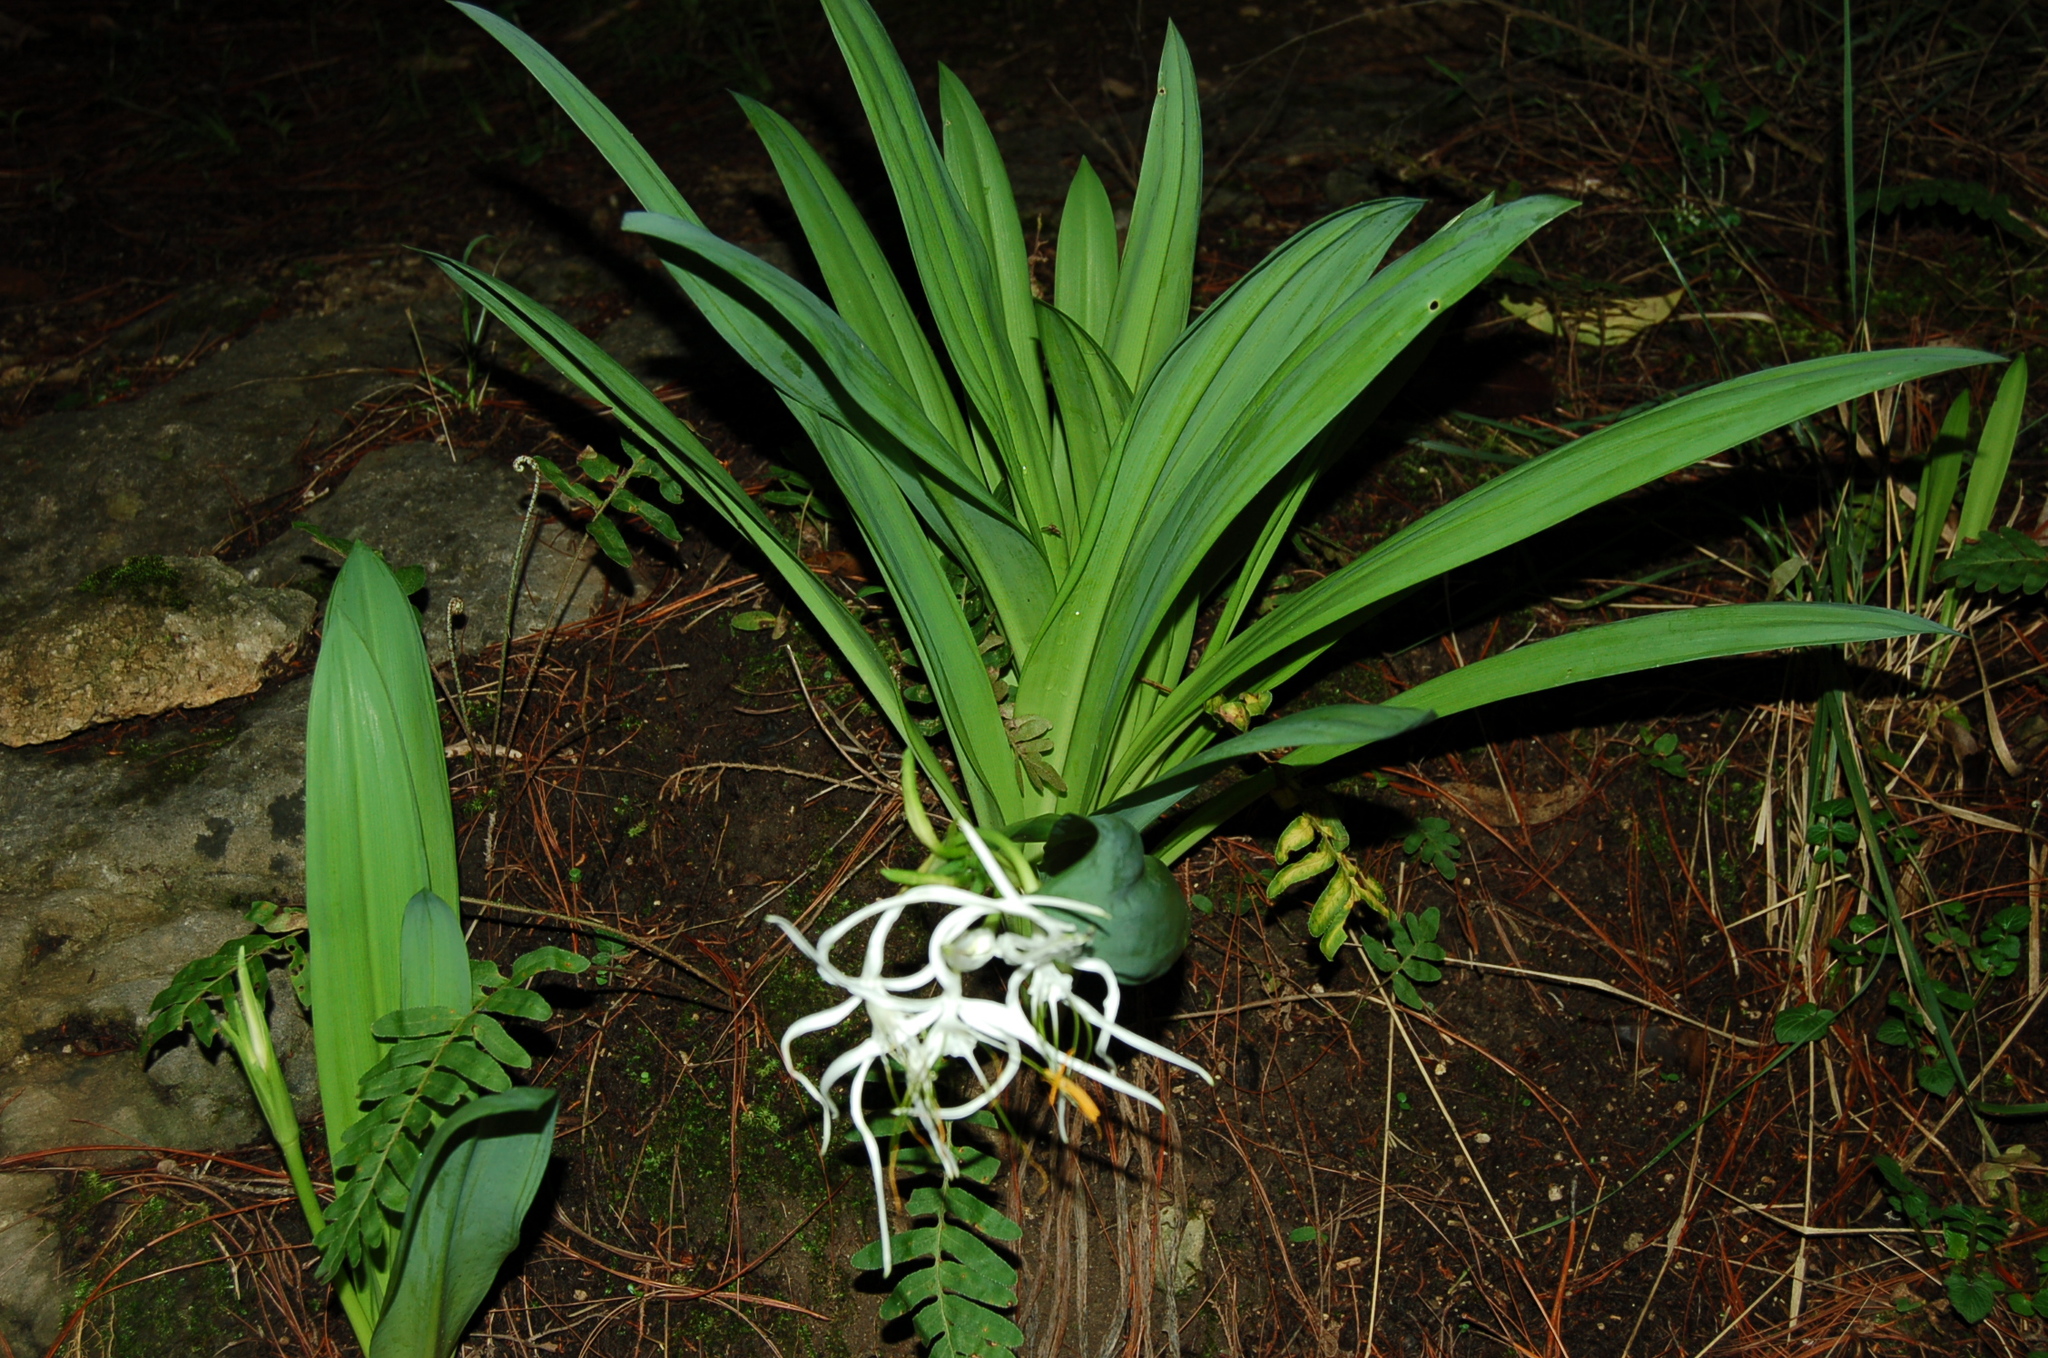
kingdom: Plantae
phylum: Tracheophyta
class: Liliopsida
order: Asparagales
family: Amaryllidaceae
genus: Hymenocallis
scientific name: Hymenocallis cleo
